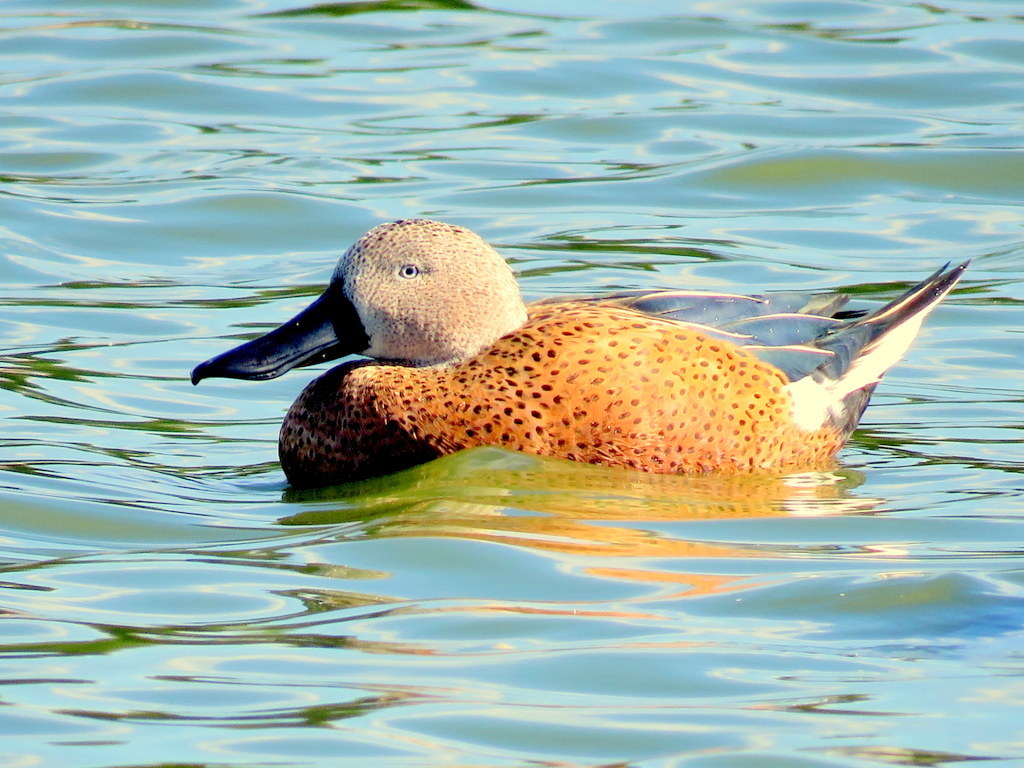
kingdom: Animalia
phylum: Chordata
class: Aves
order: Anseriformes
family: Anatidae
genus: Spatula
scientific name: Spatula platalea
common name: Red shoveler
